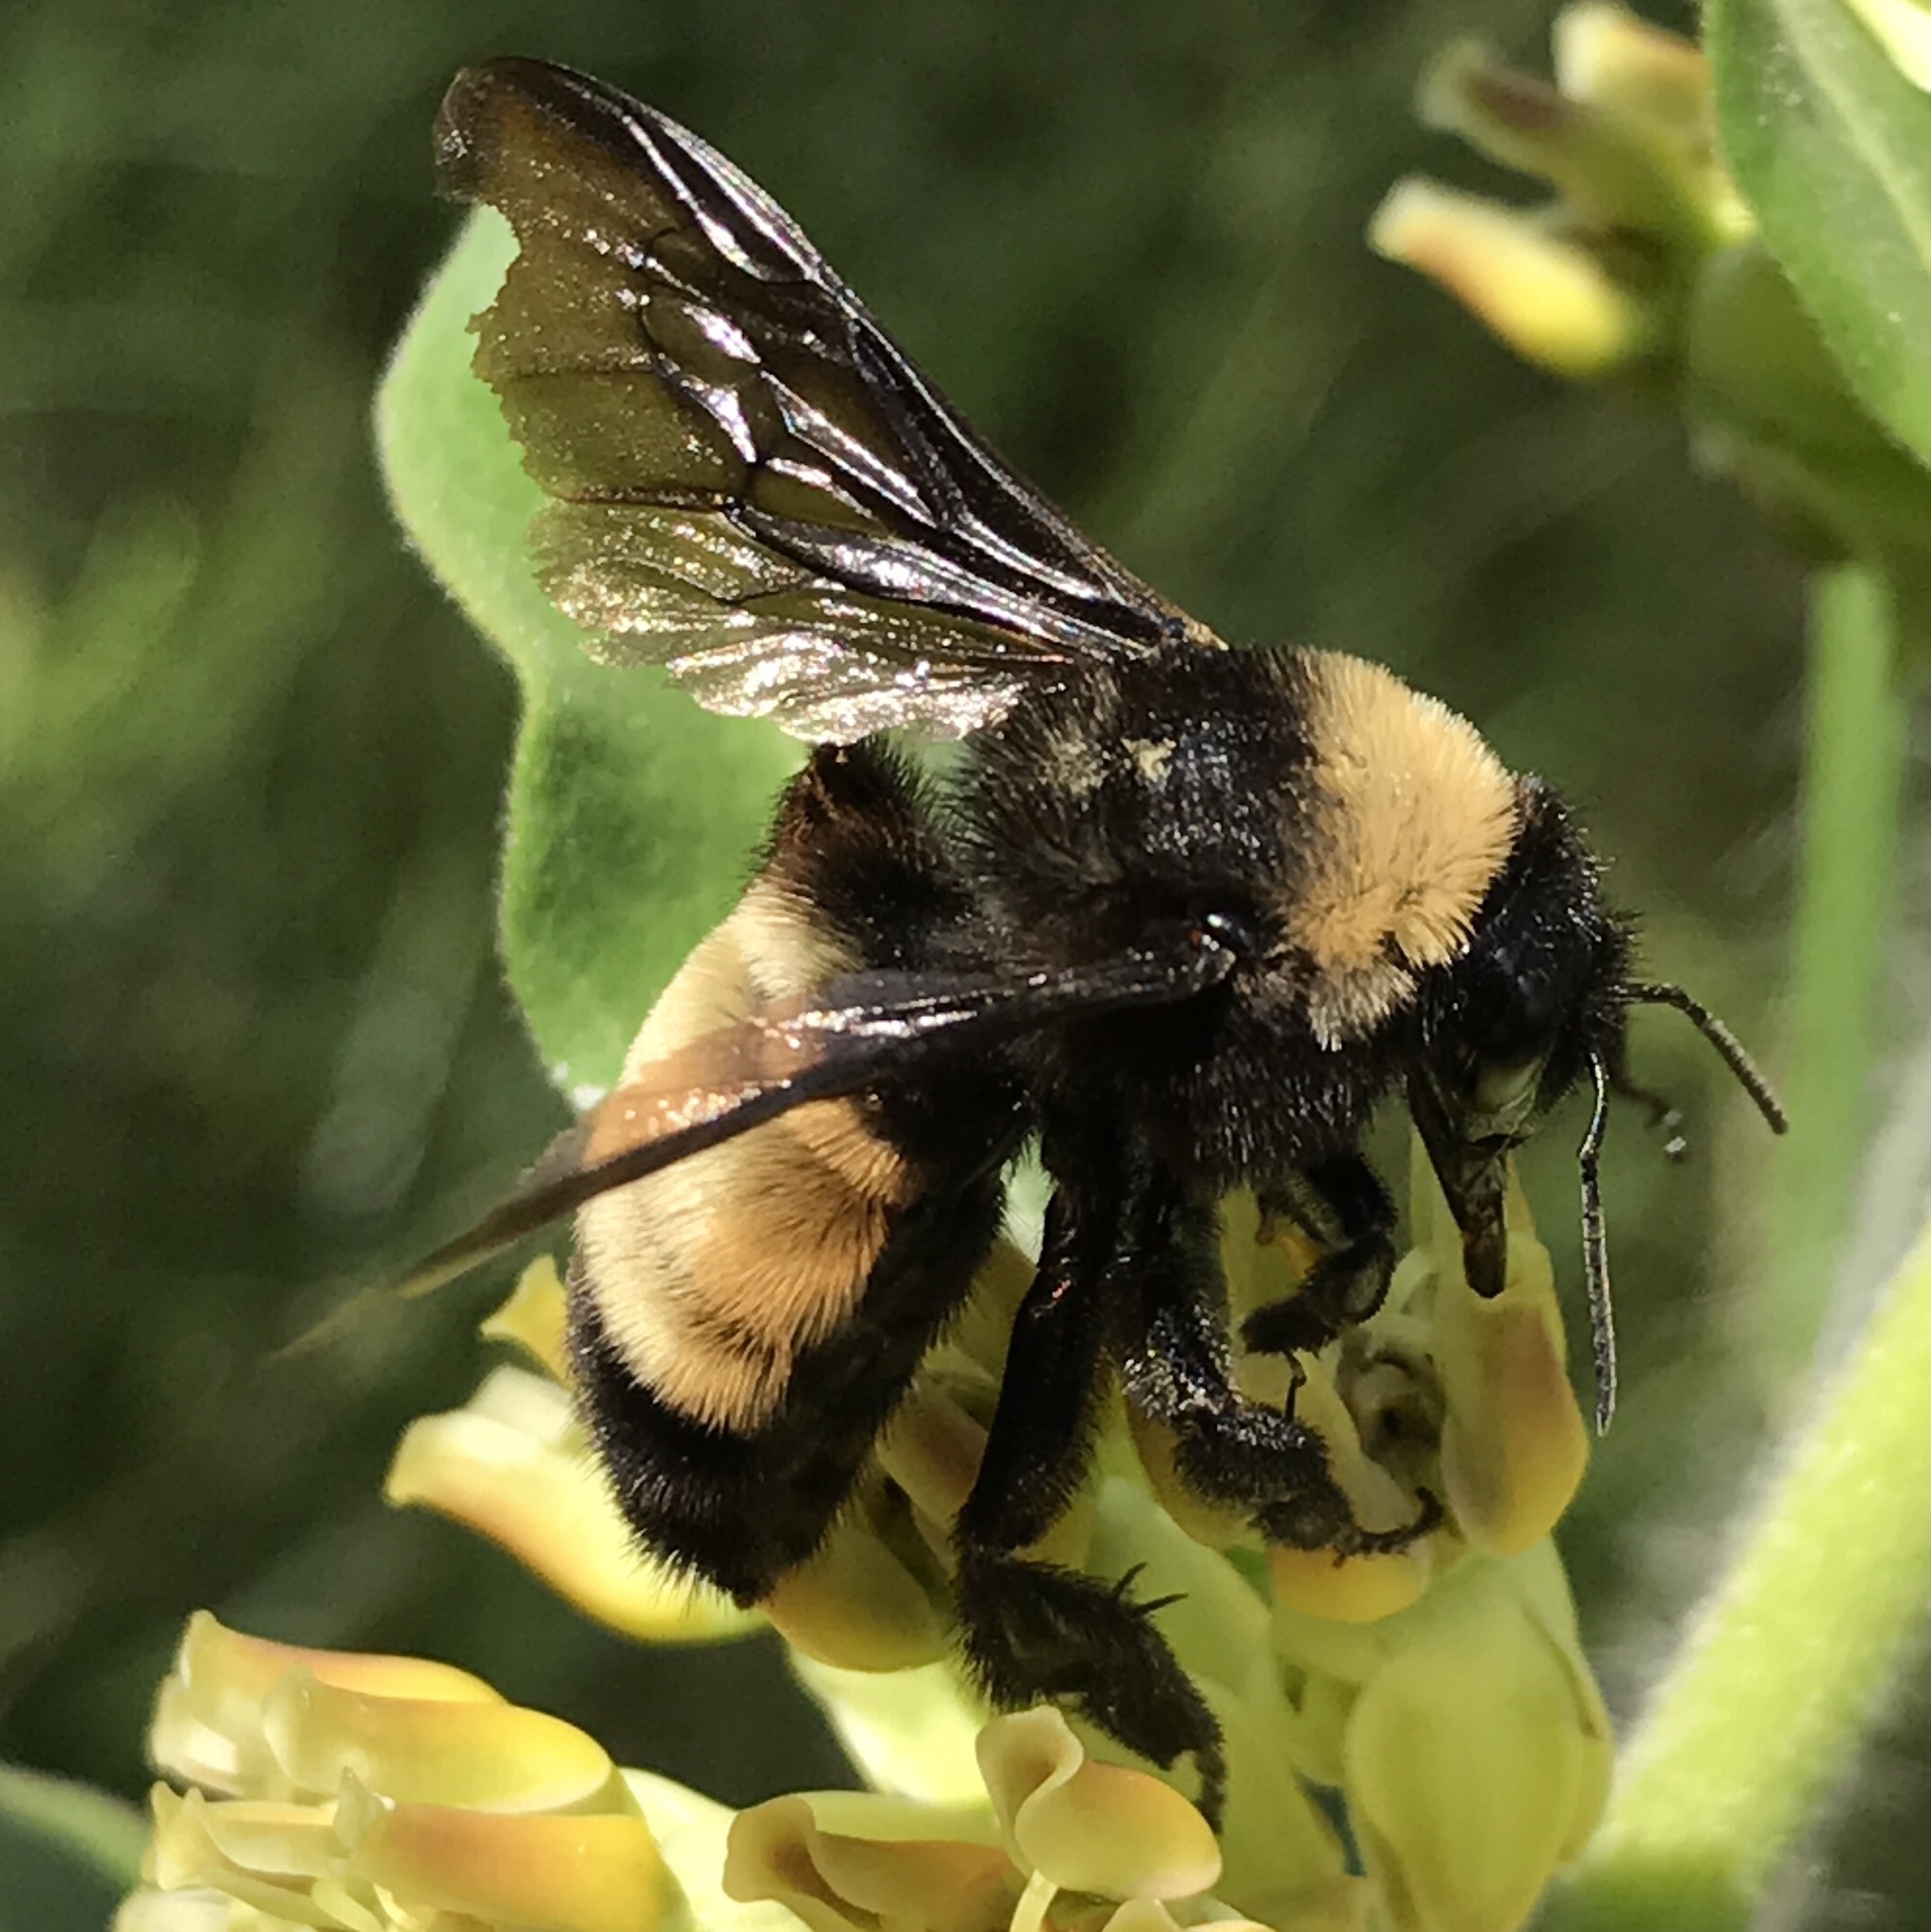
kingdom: Animalia
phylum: Arthropoda
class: Insecta
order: Hymenoptera
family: Apidae
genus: Bombus
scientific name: Bombus pensylvanicus
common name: Bumble bee
